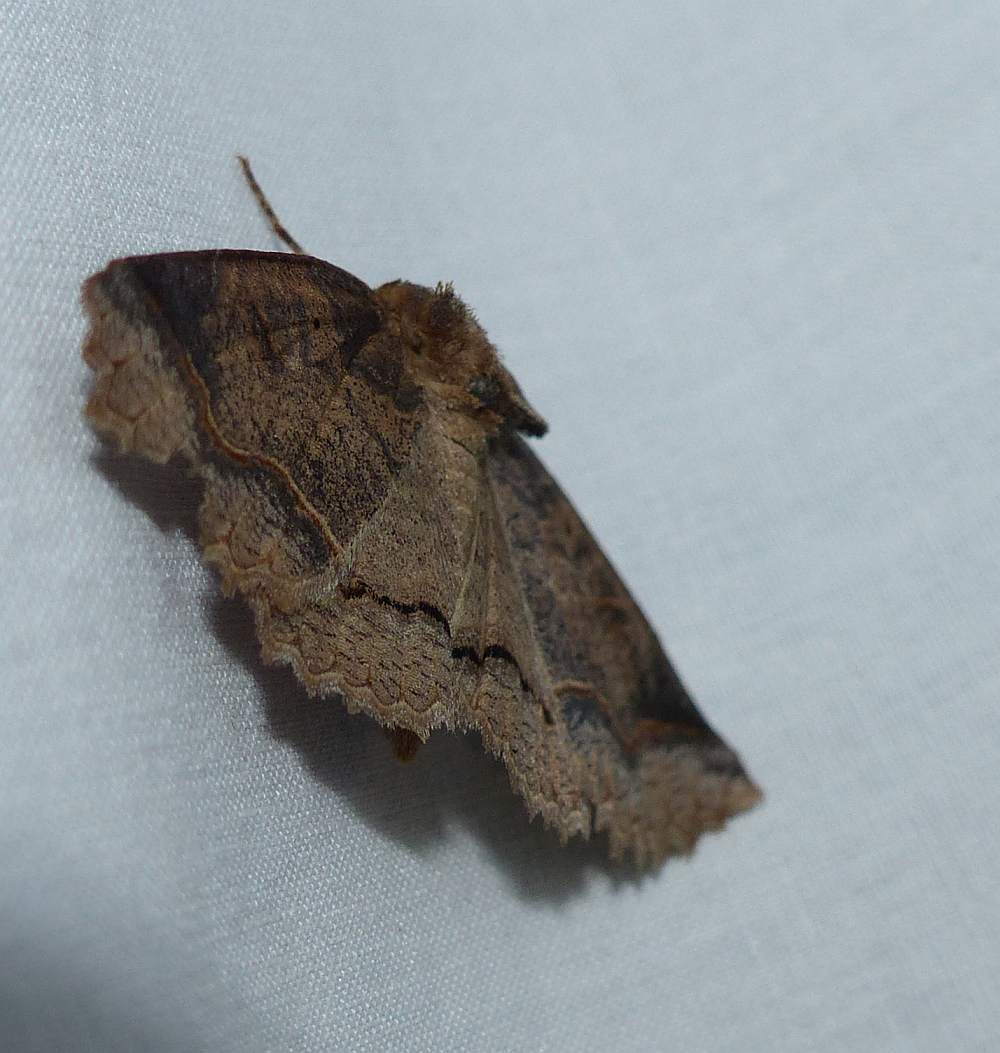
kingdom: Animalia
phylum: Arthropoda
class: Insecta
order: Lepidoptera
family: Erebidae
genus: Zale
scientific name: Zale unilineata
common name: One-lined zale moth
